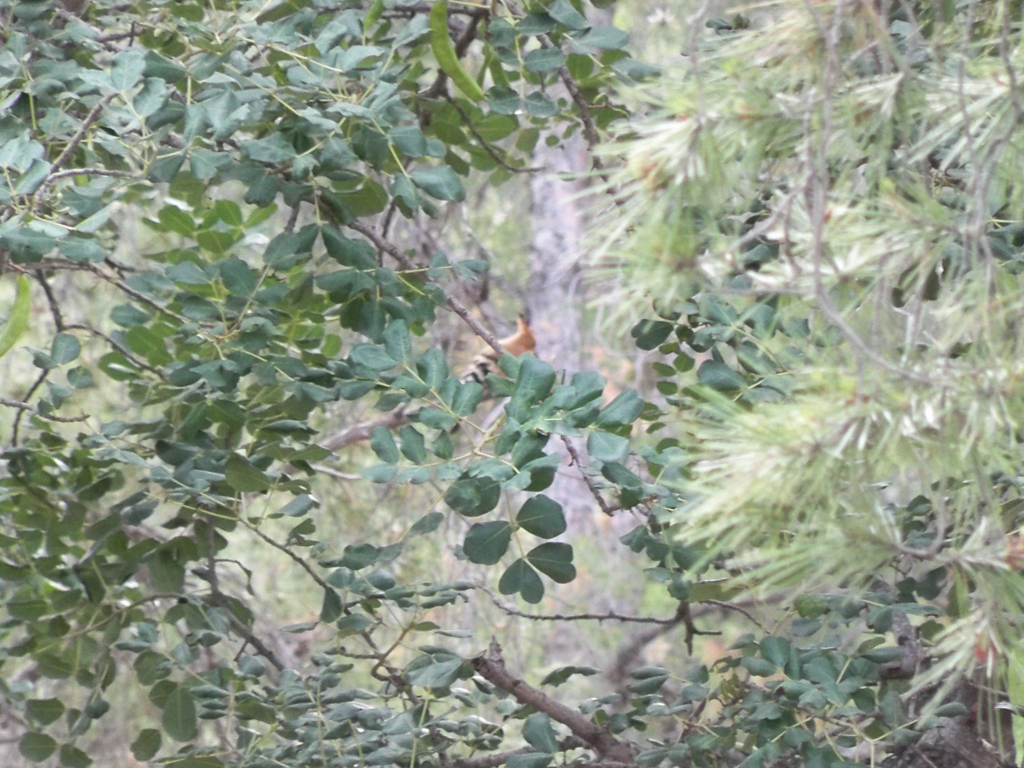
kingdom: Animalia
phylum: Chordata
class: Aves
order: Bucerotiformes
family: Upupidae
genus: Upupa
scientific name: Upupa epops
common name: Eurasian hoopoe
